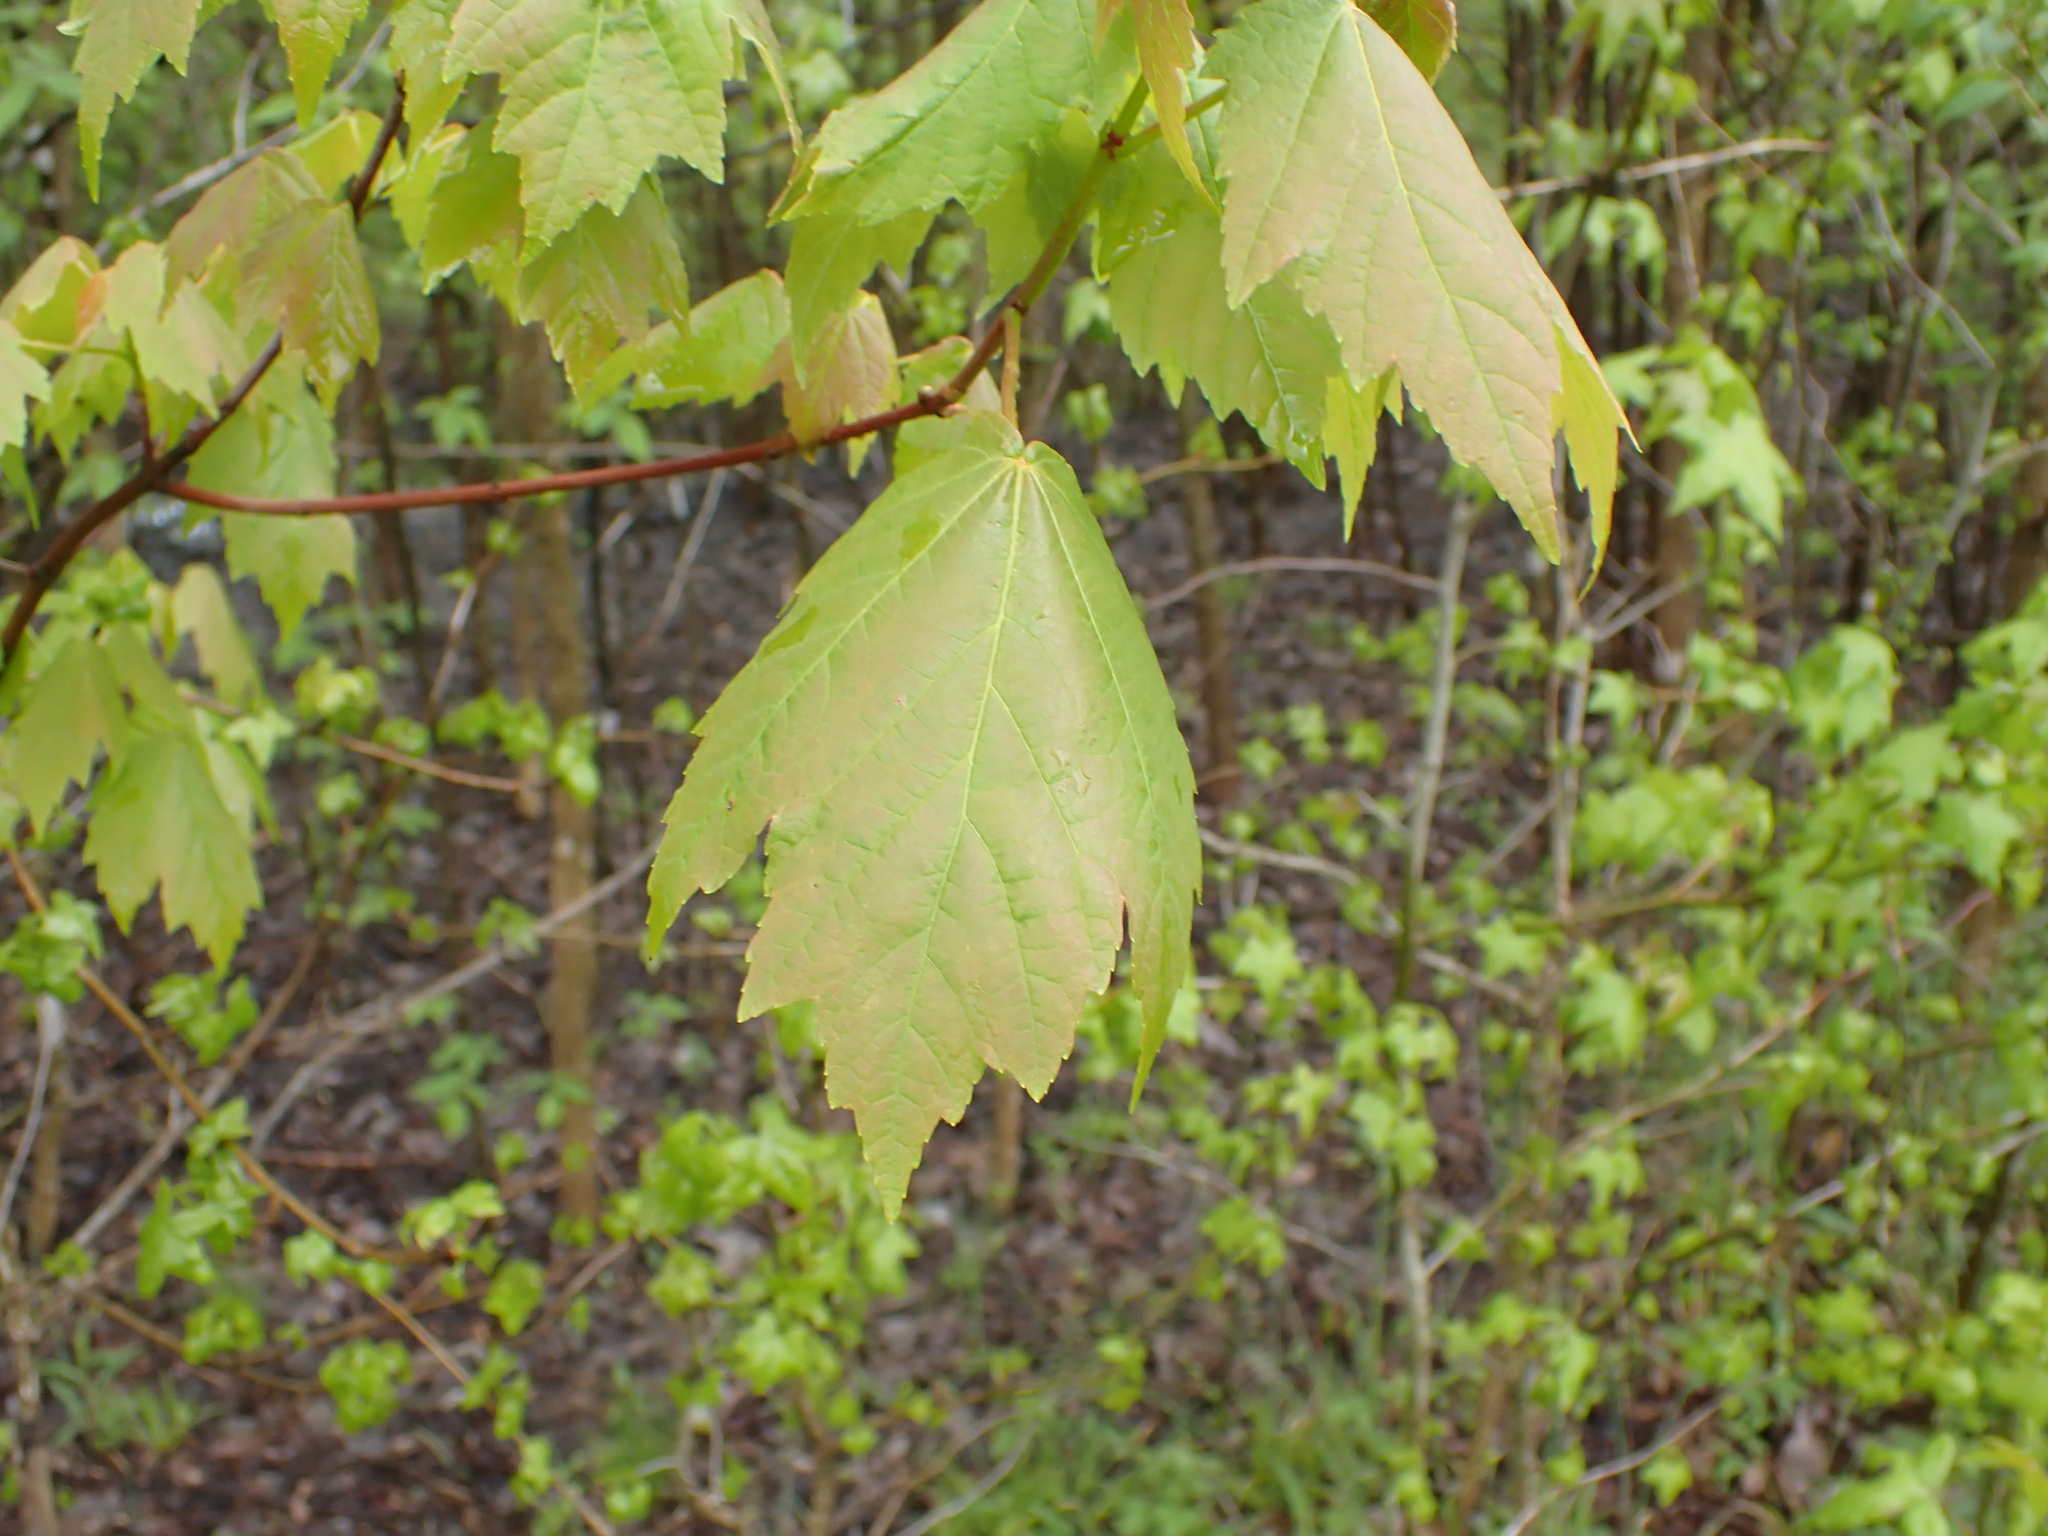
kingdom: Plantae
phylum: Tracheophyta
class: Magnoliopsida
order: Sapindales
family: Sapindaceae
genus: Acer
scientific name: Acer rubrum
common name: Red maple
